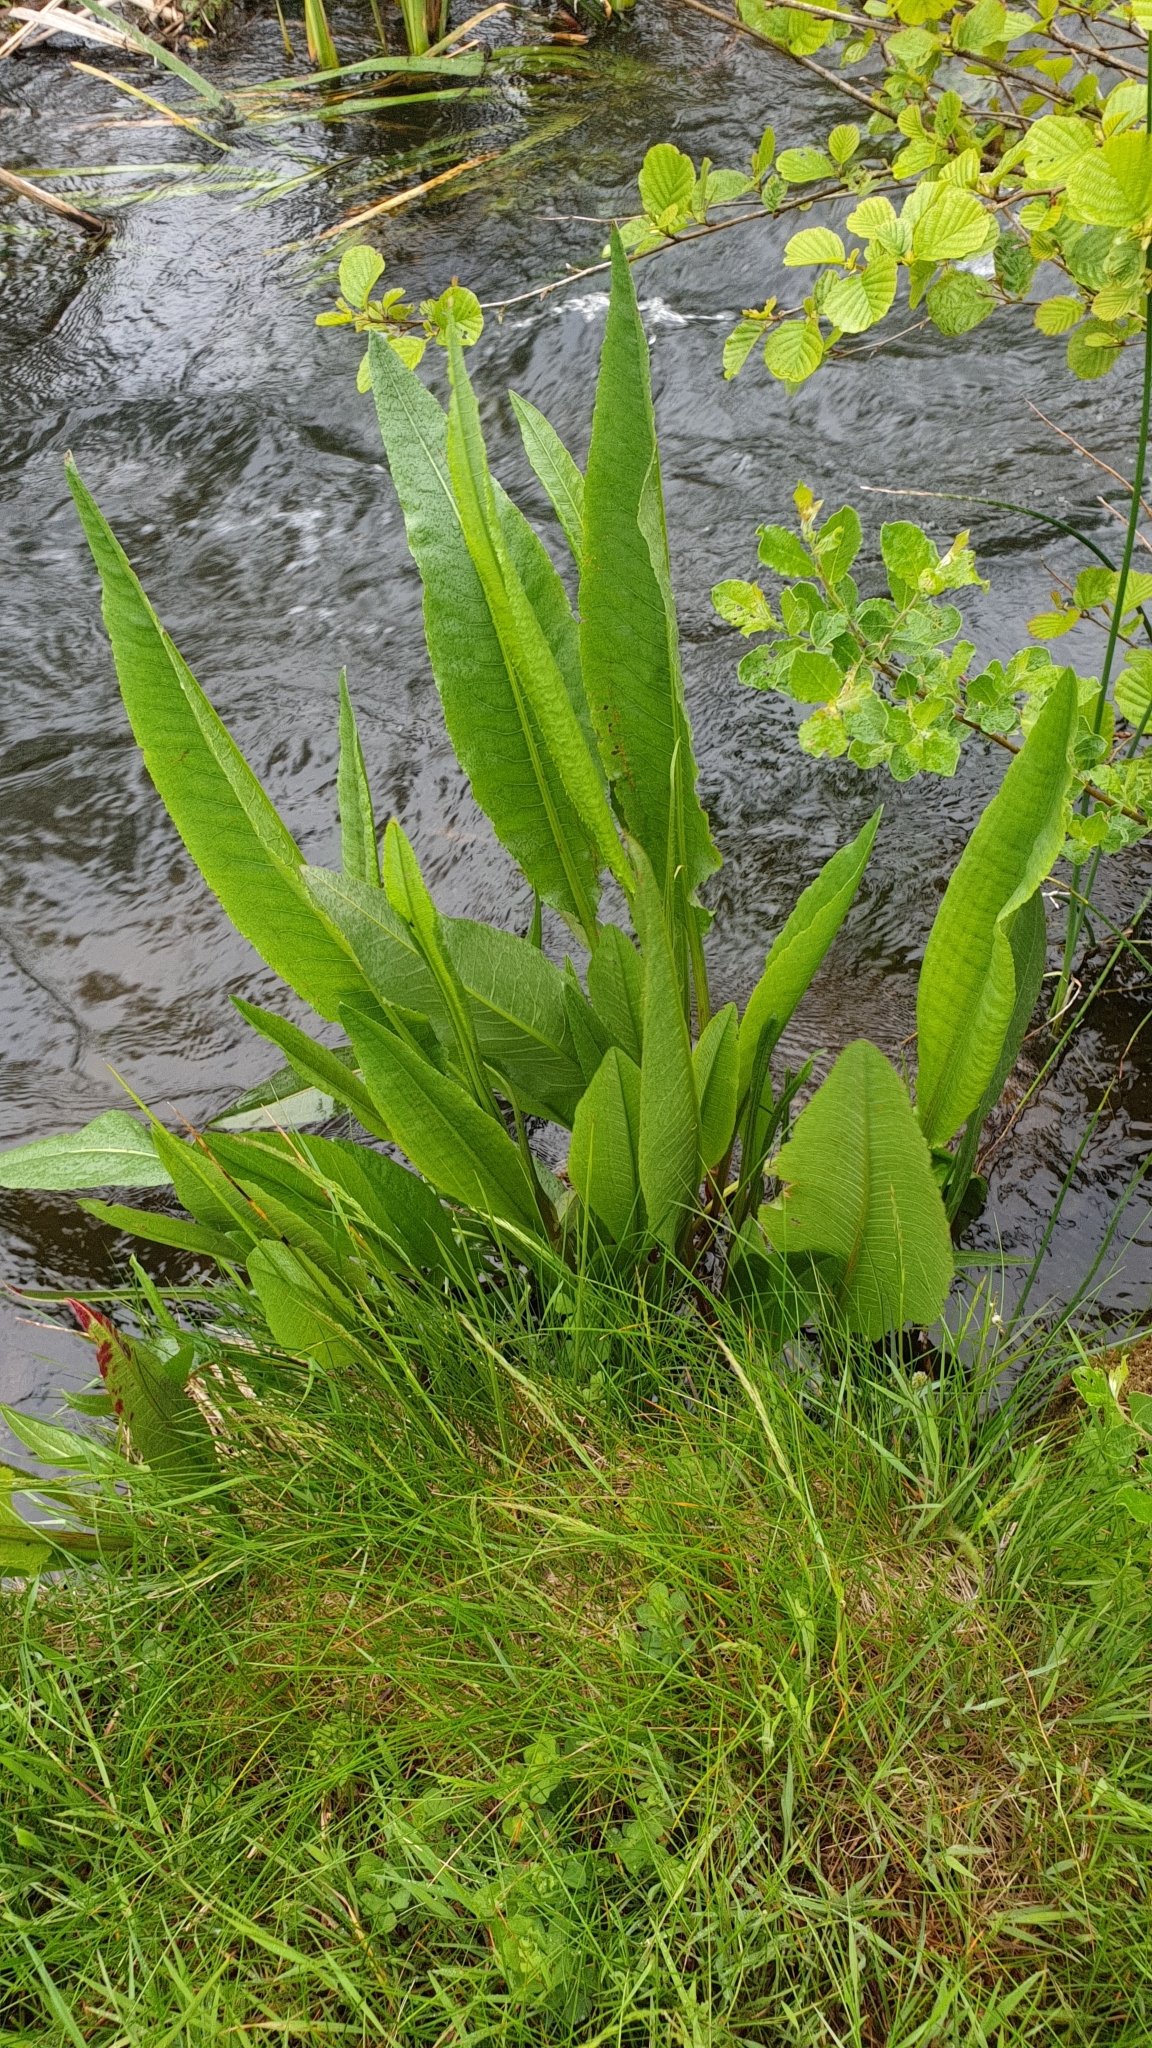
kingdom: Plantae
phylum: Tracheophyta
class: Magnoliopsida
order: Caryophyllales
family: Polygonaceae
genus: Rumex
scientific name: Rumex hydrolapathum
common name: Water dock
